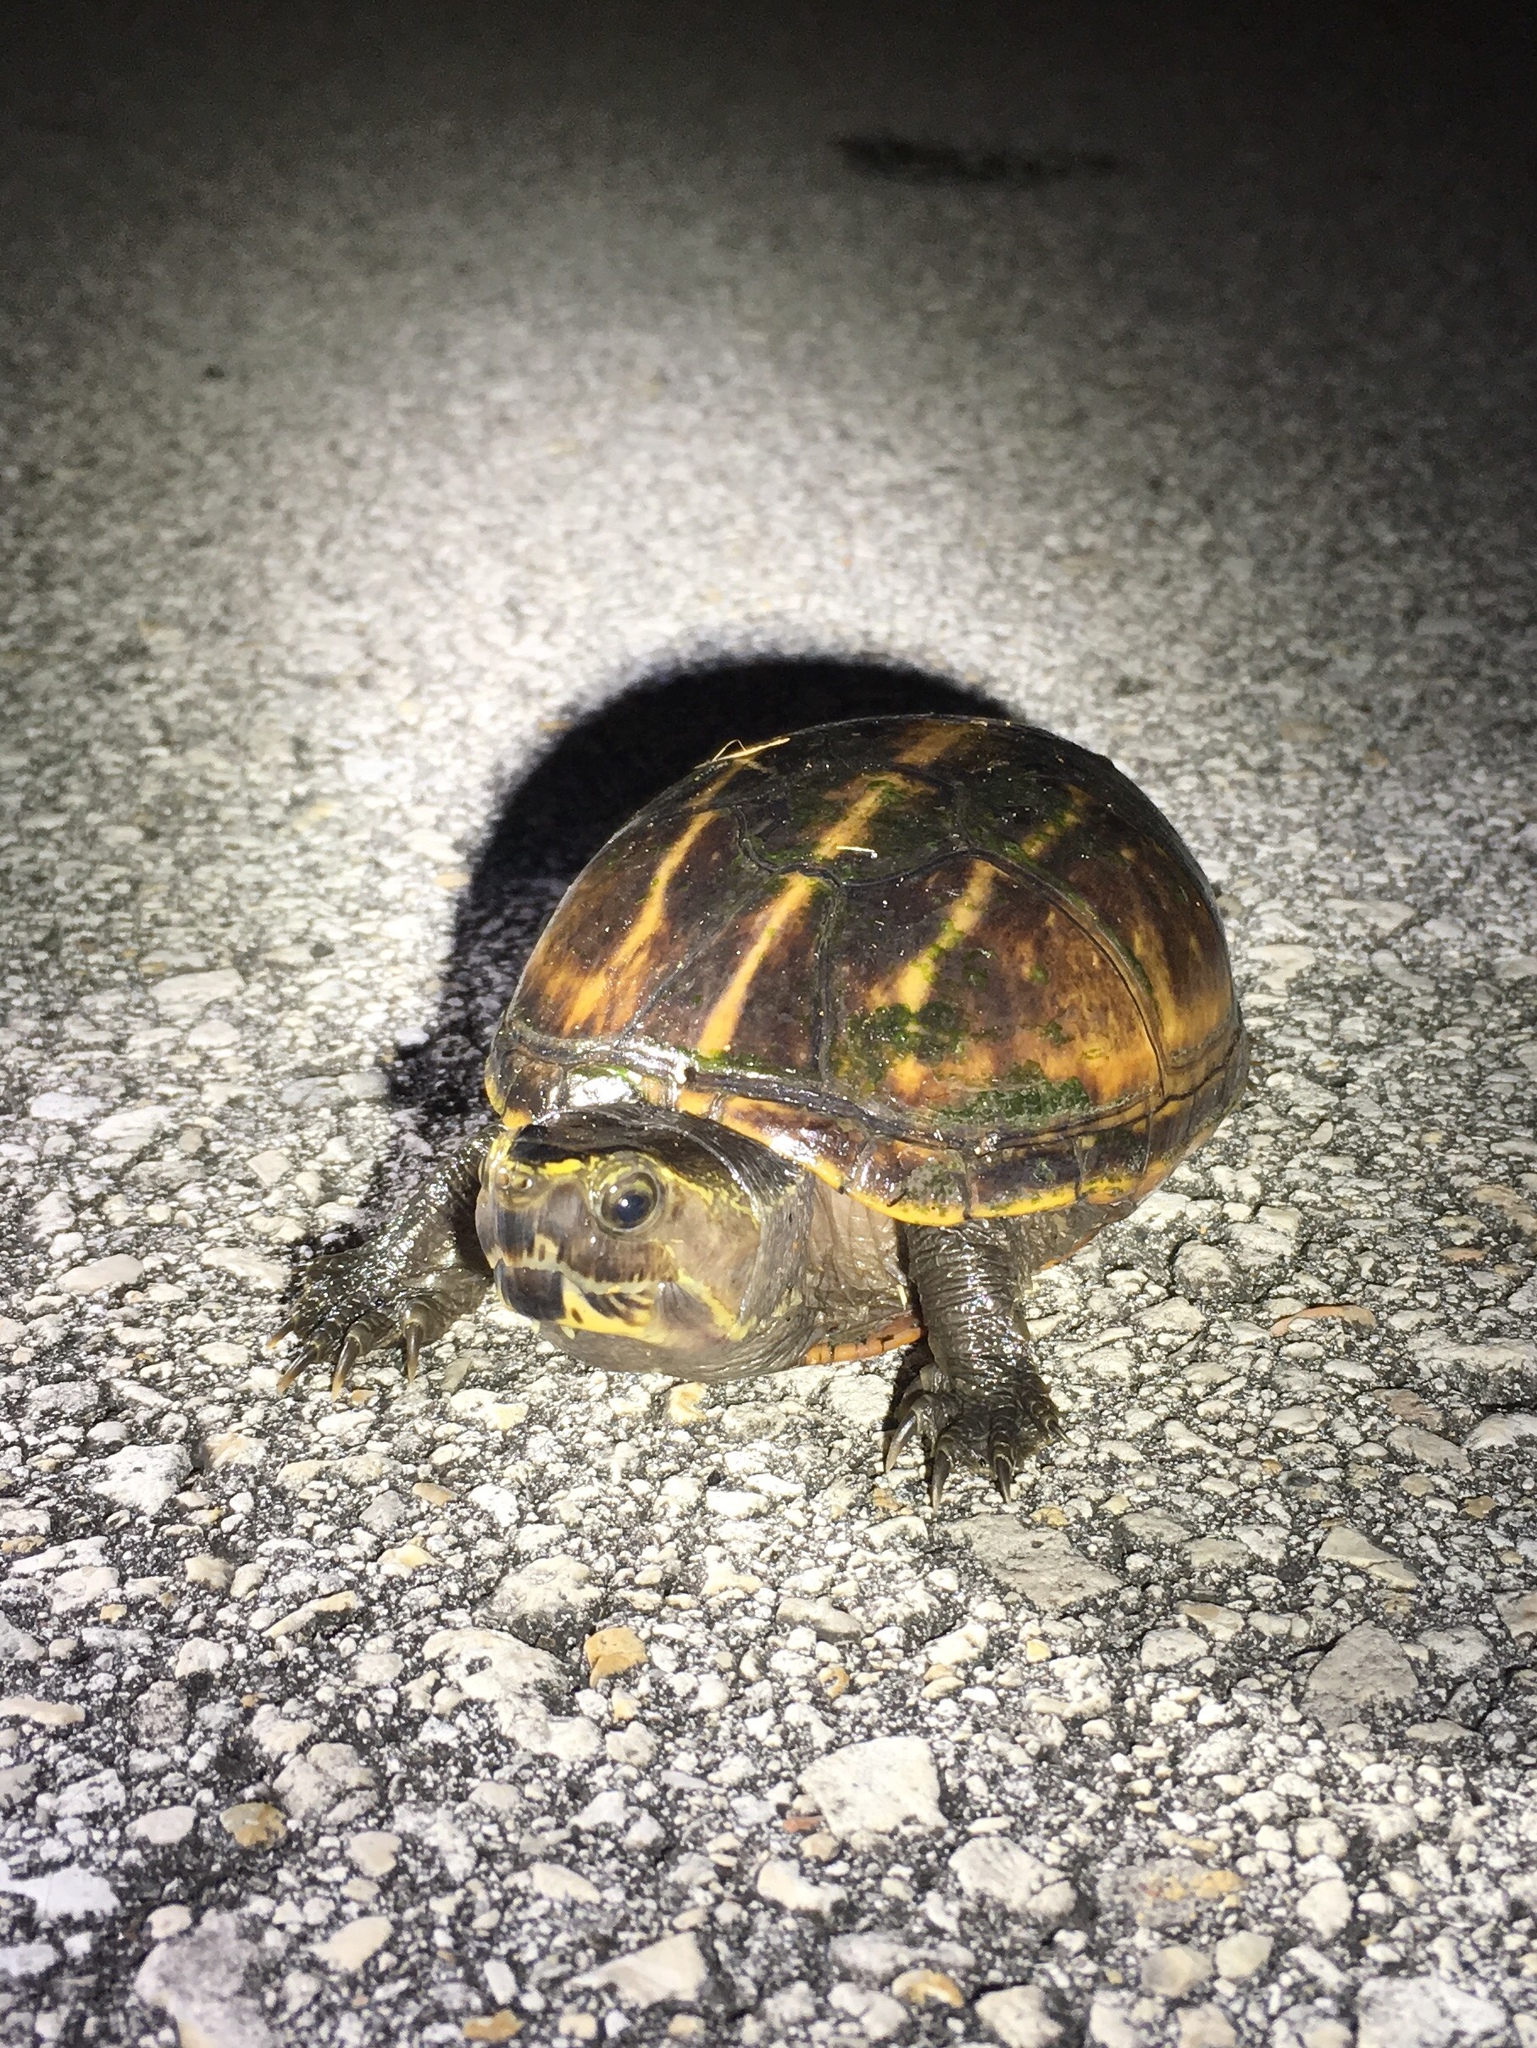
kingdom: Animalia
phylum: Chordata
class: Testudines
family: Kinosternidae
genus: Kinosternon
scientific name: Kinosternon baurii
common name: Striped mud turtle
